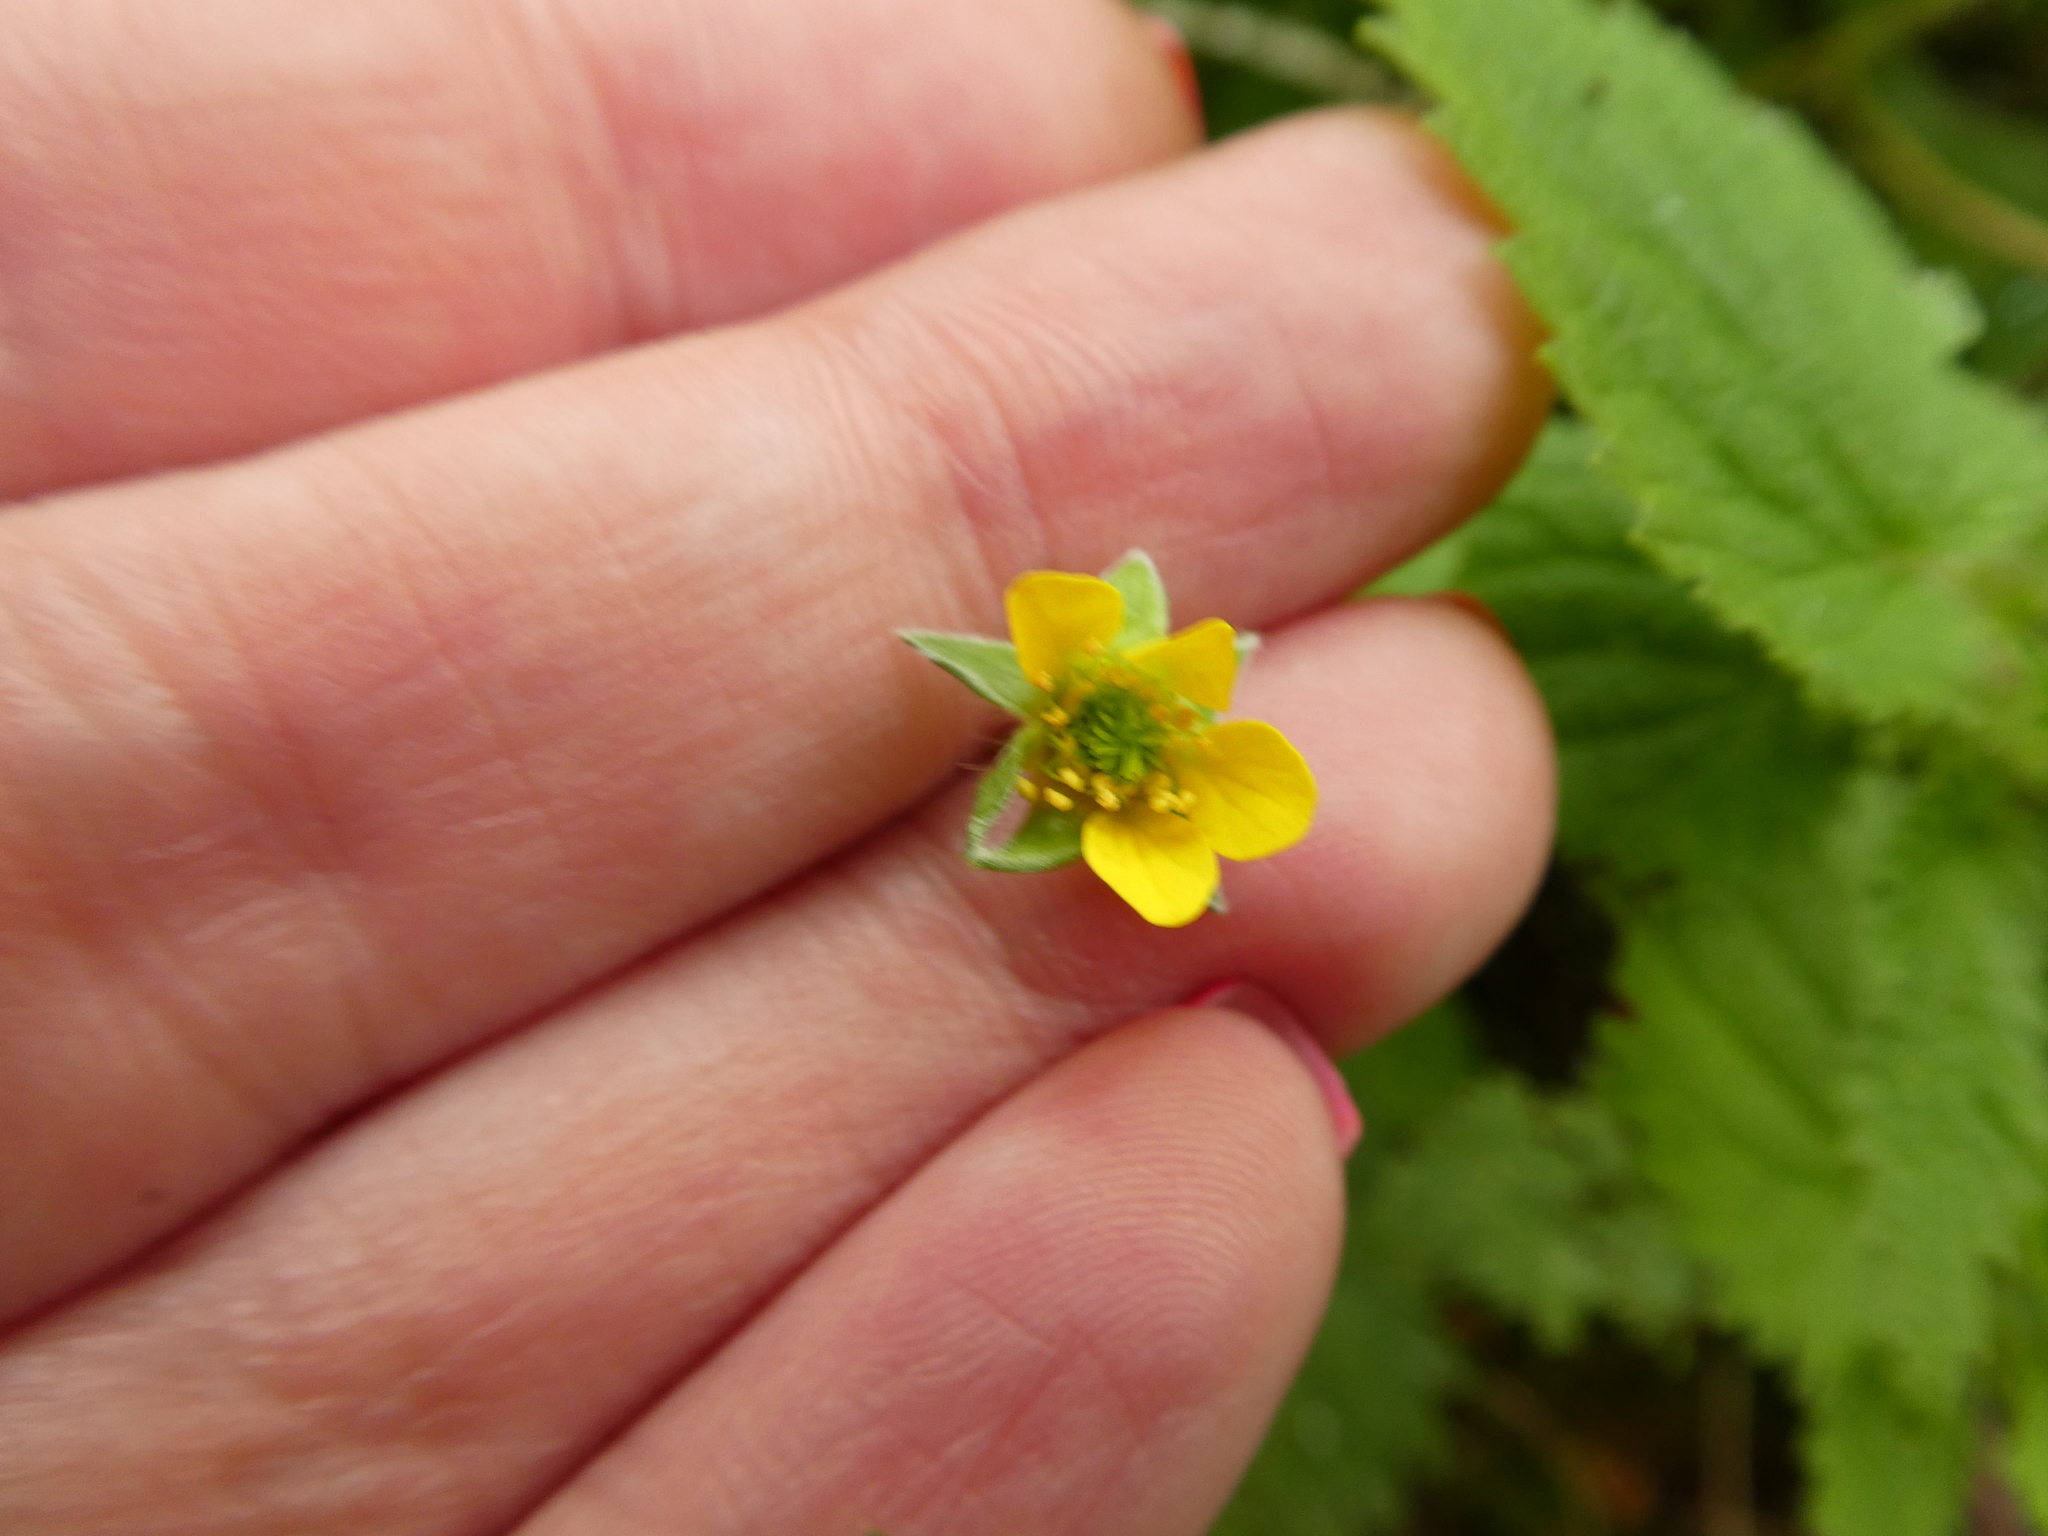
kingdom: Plantae
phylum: Tracheophyta
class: Magnoliopsida
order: Rosales
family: Rosaceae
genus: Geum
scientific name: Geum urbanum
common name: Wood avens
